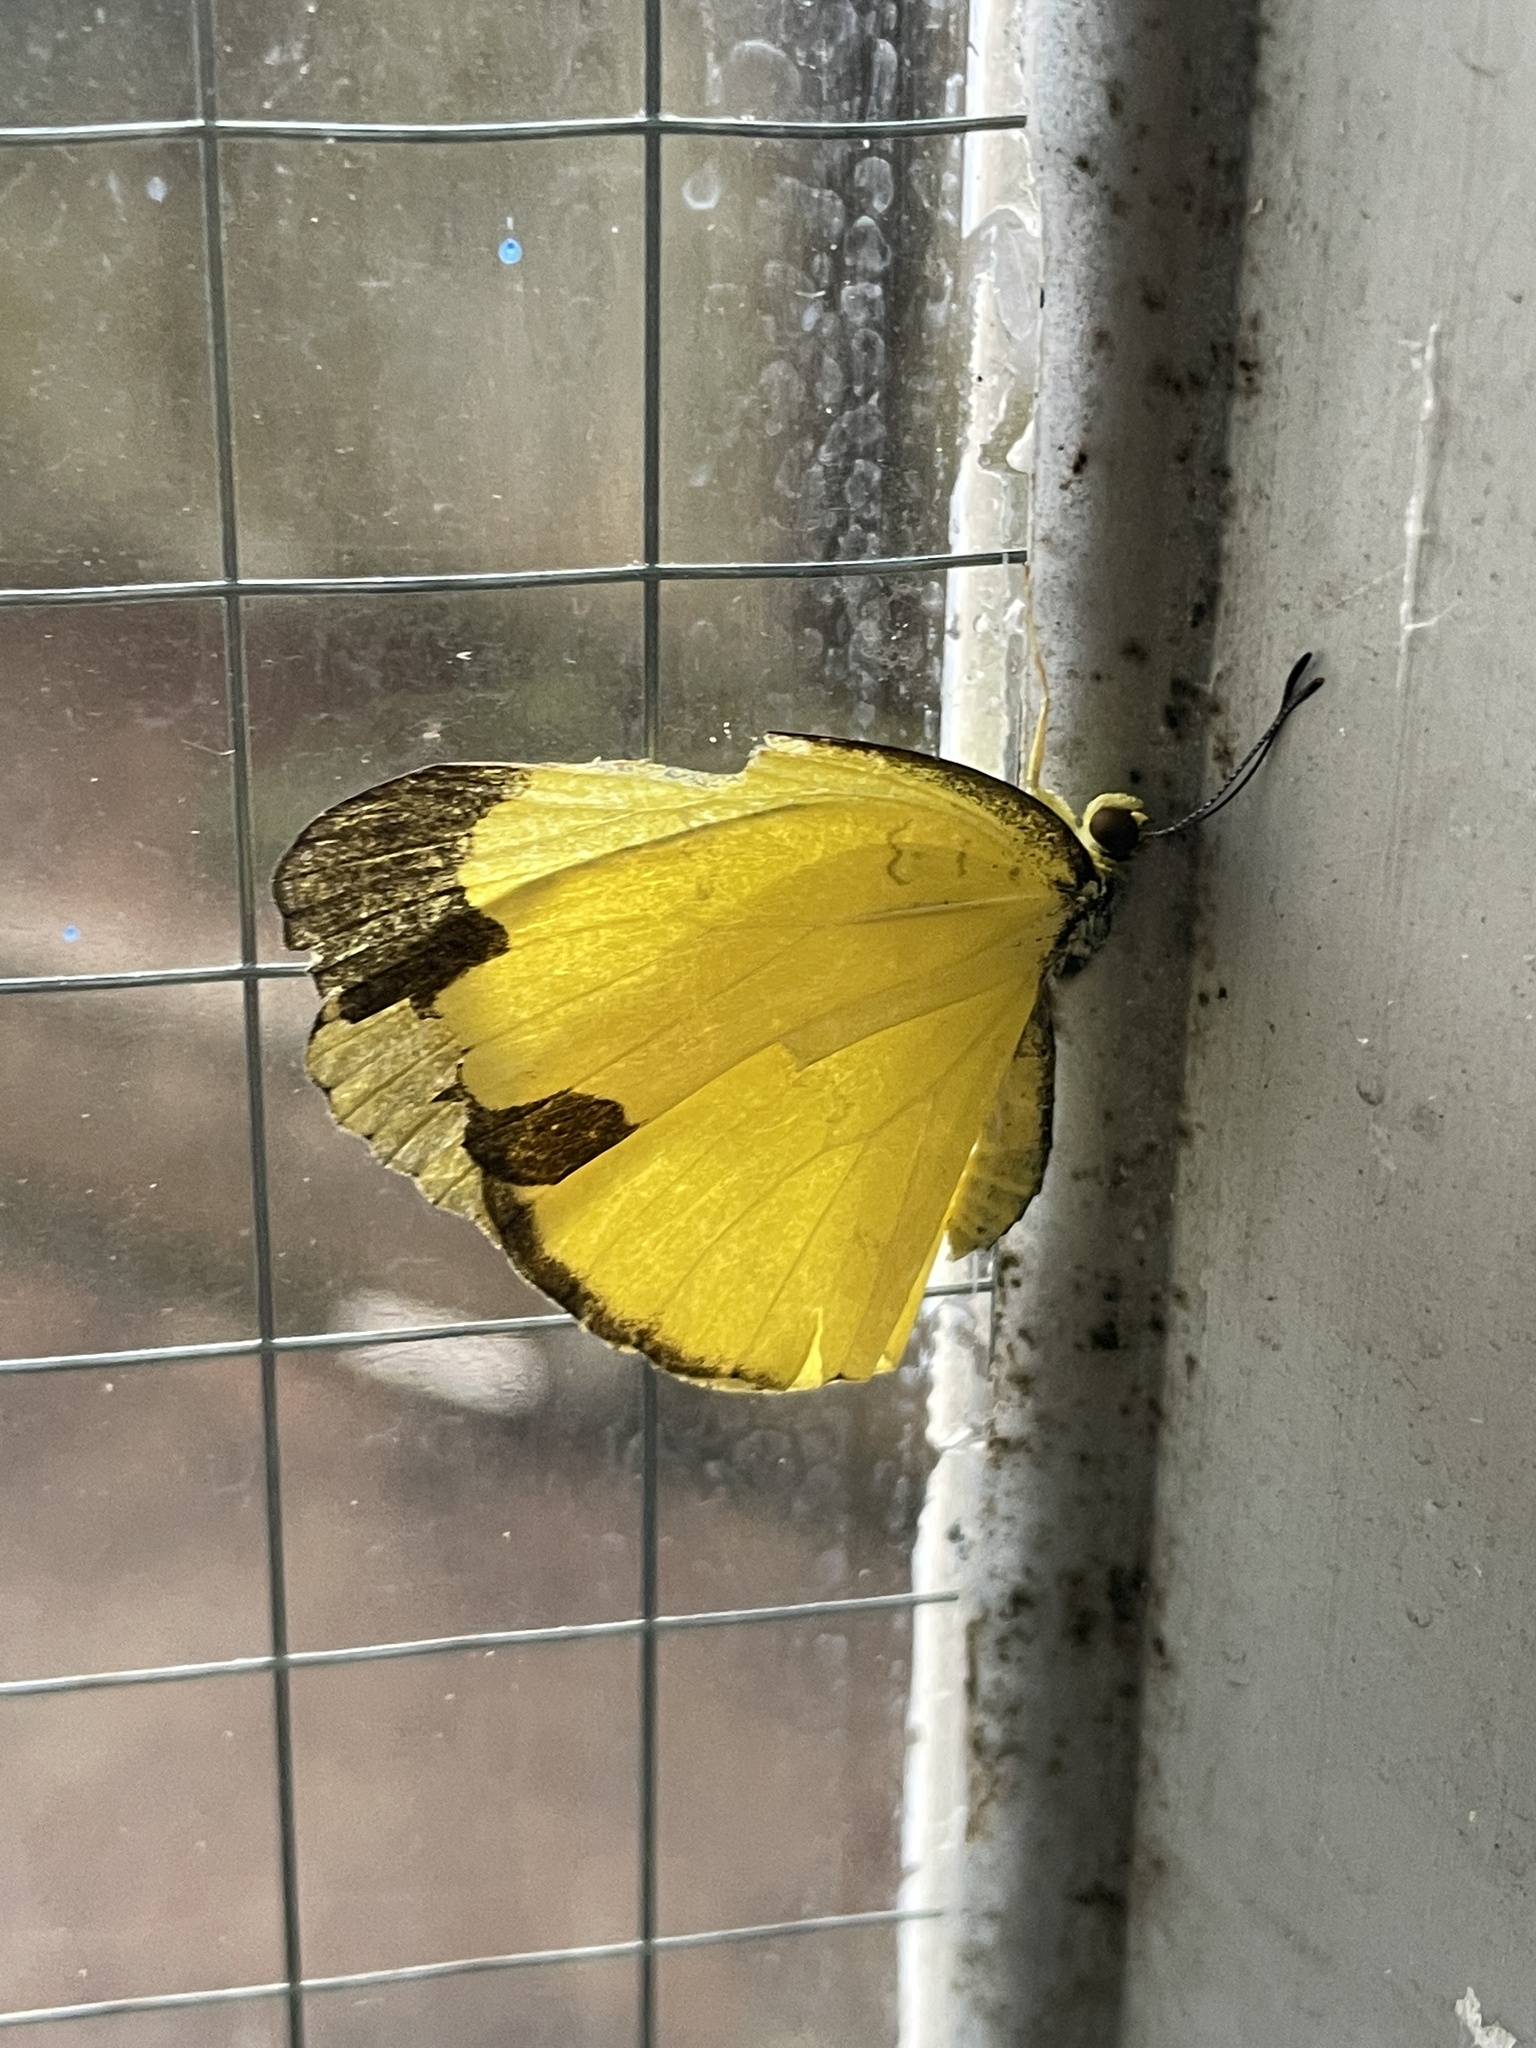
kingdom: Animalia
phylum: Arthropoda
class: Insecta
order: Lepidoptera
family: Pieridae
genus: Eurema
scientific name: Eurema blanda
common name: Three-spot grass yellow
